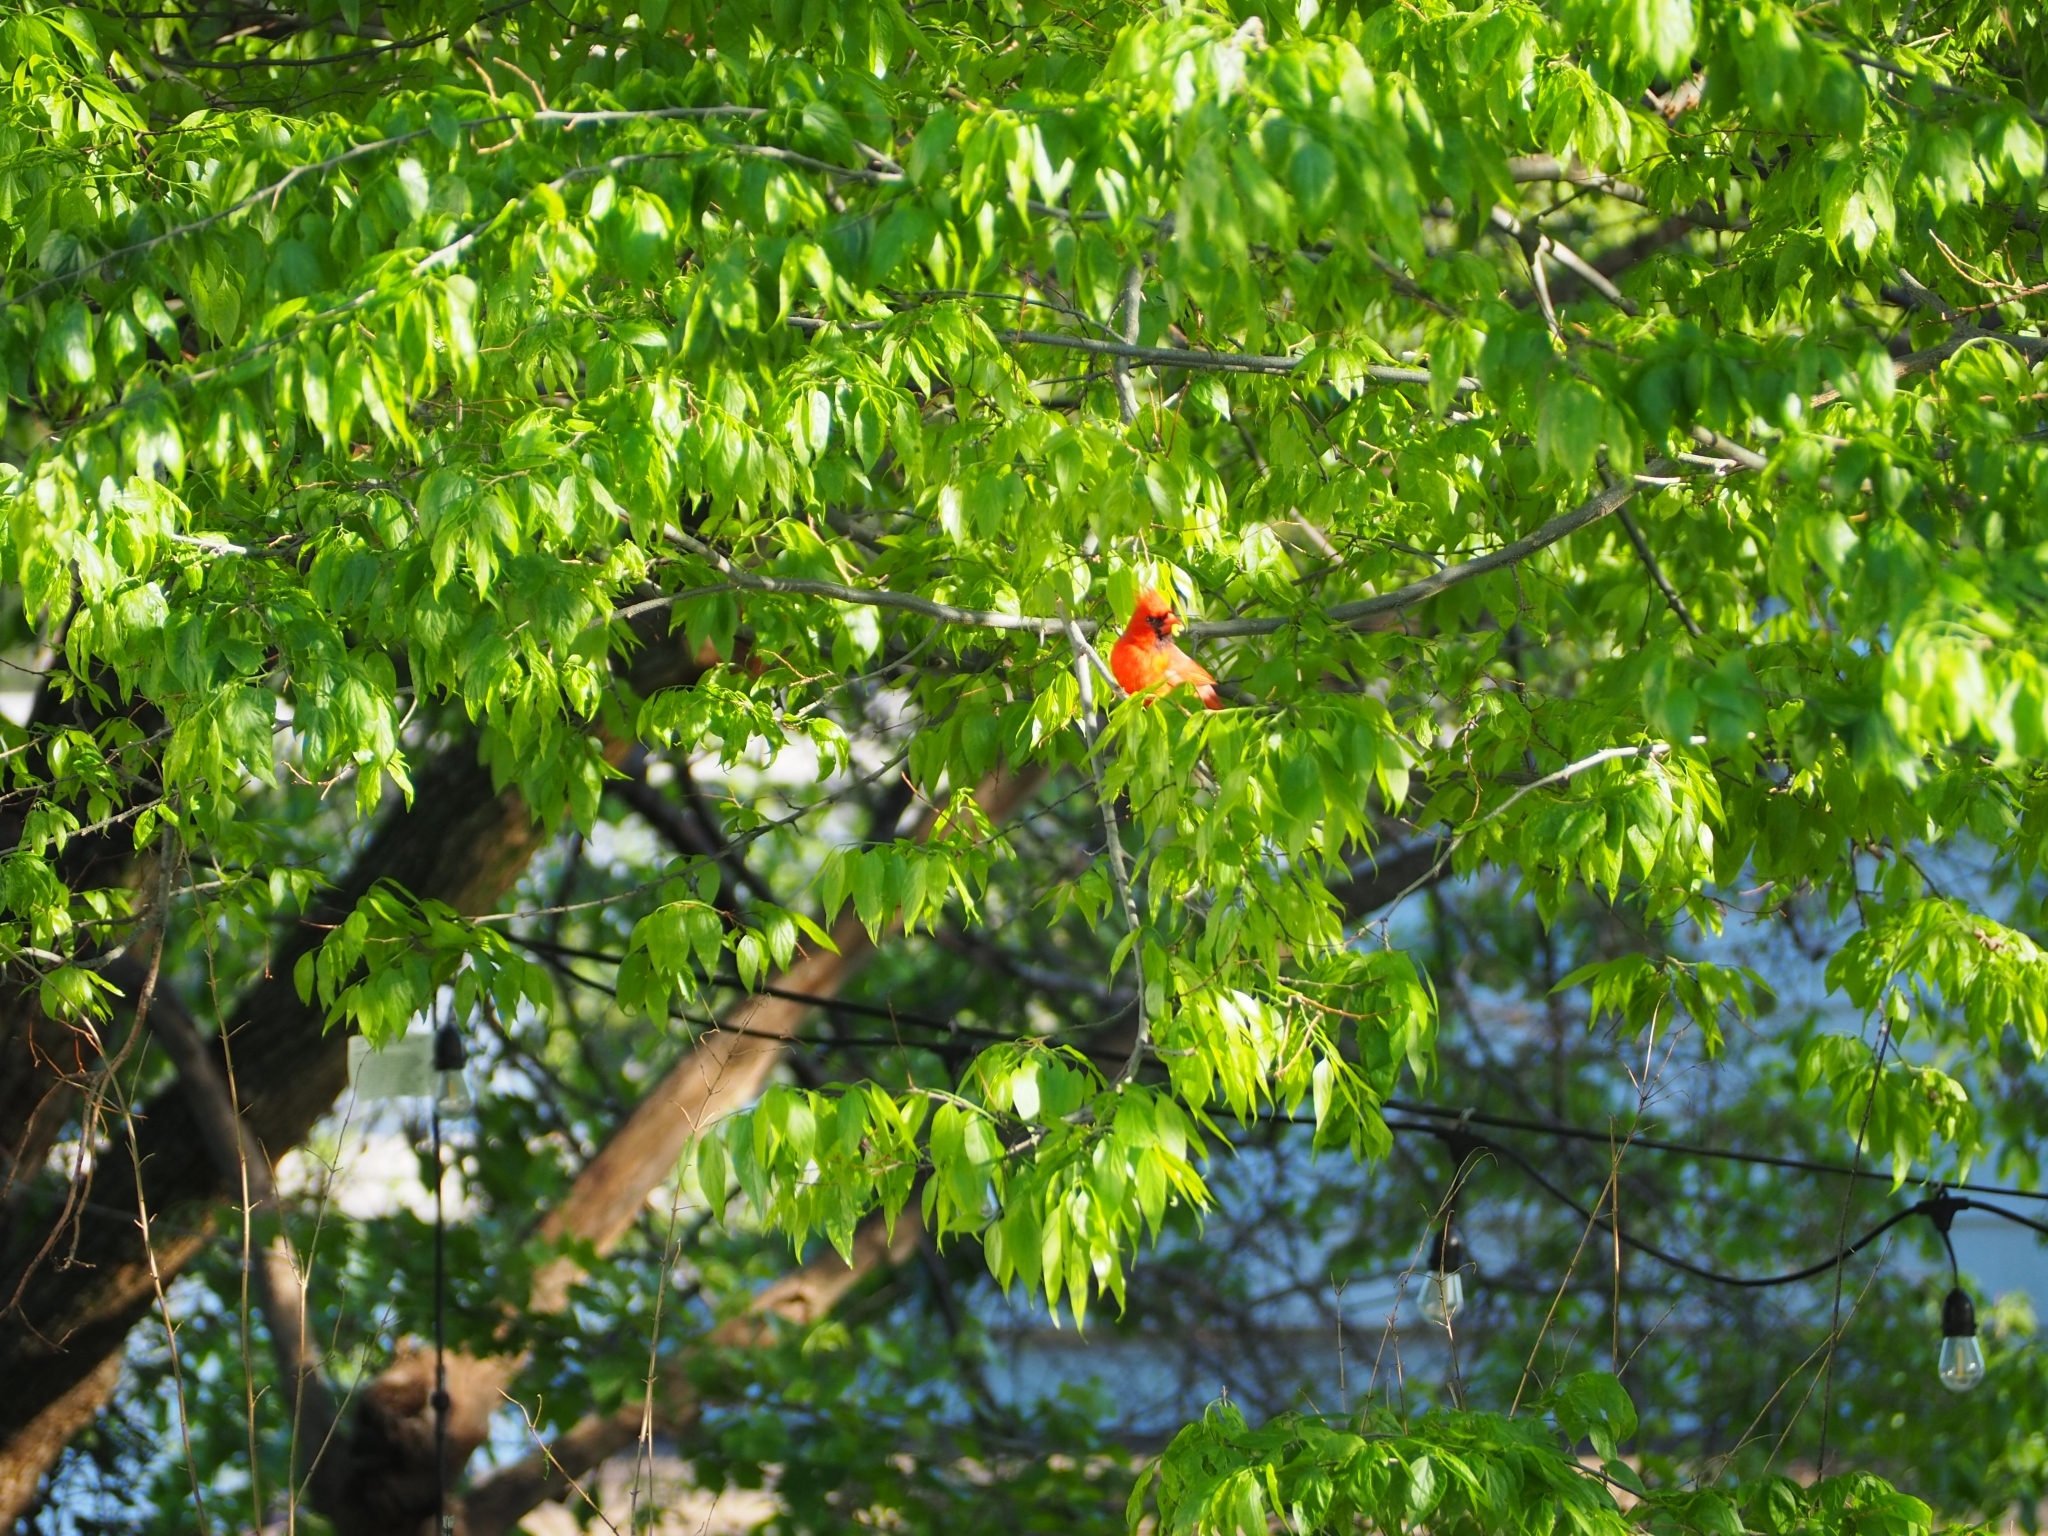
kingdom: Animalia
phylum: Chordata
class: Aves
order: Passeriformes
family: Cardinalidae
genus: Cardinalis
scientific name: Cardinalis cardinalis
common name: Northern cardinal
